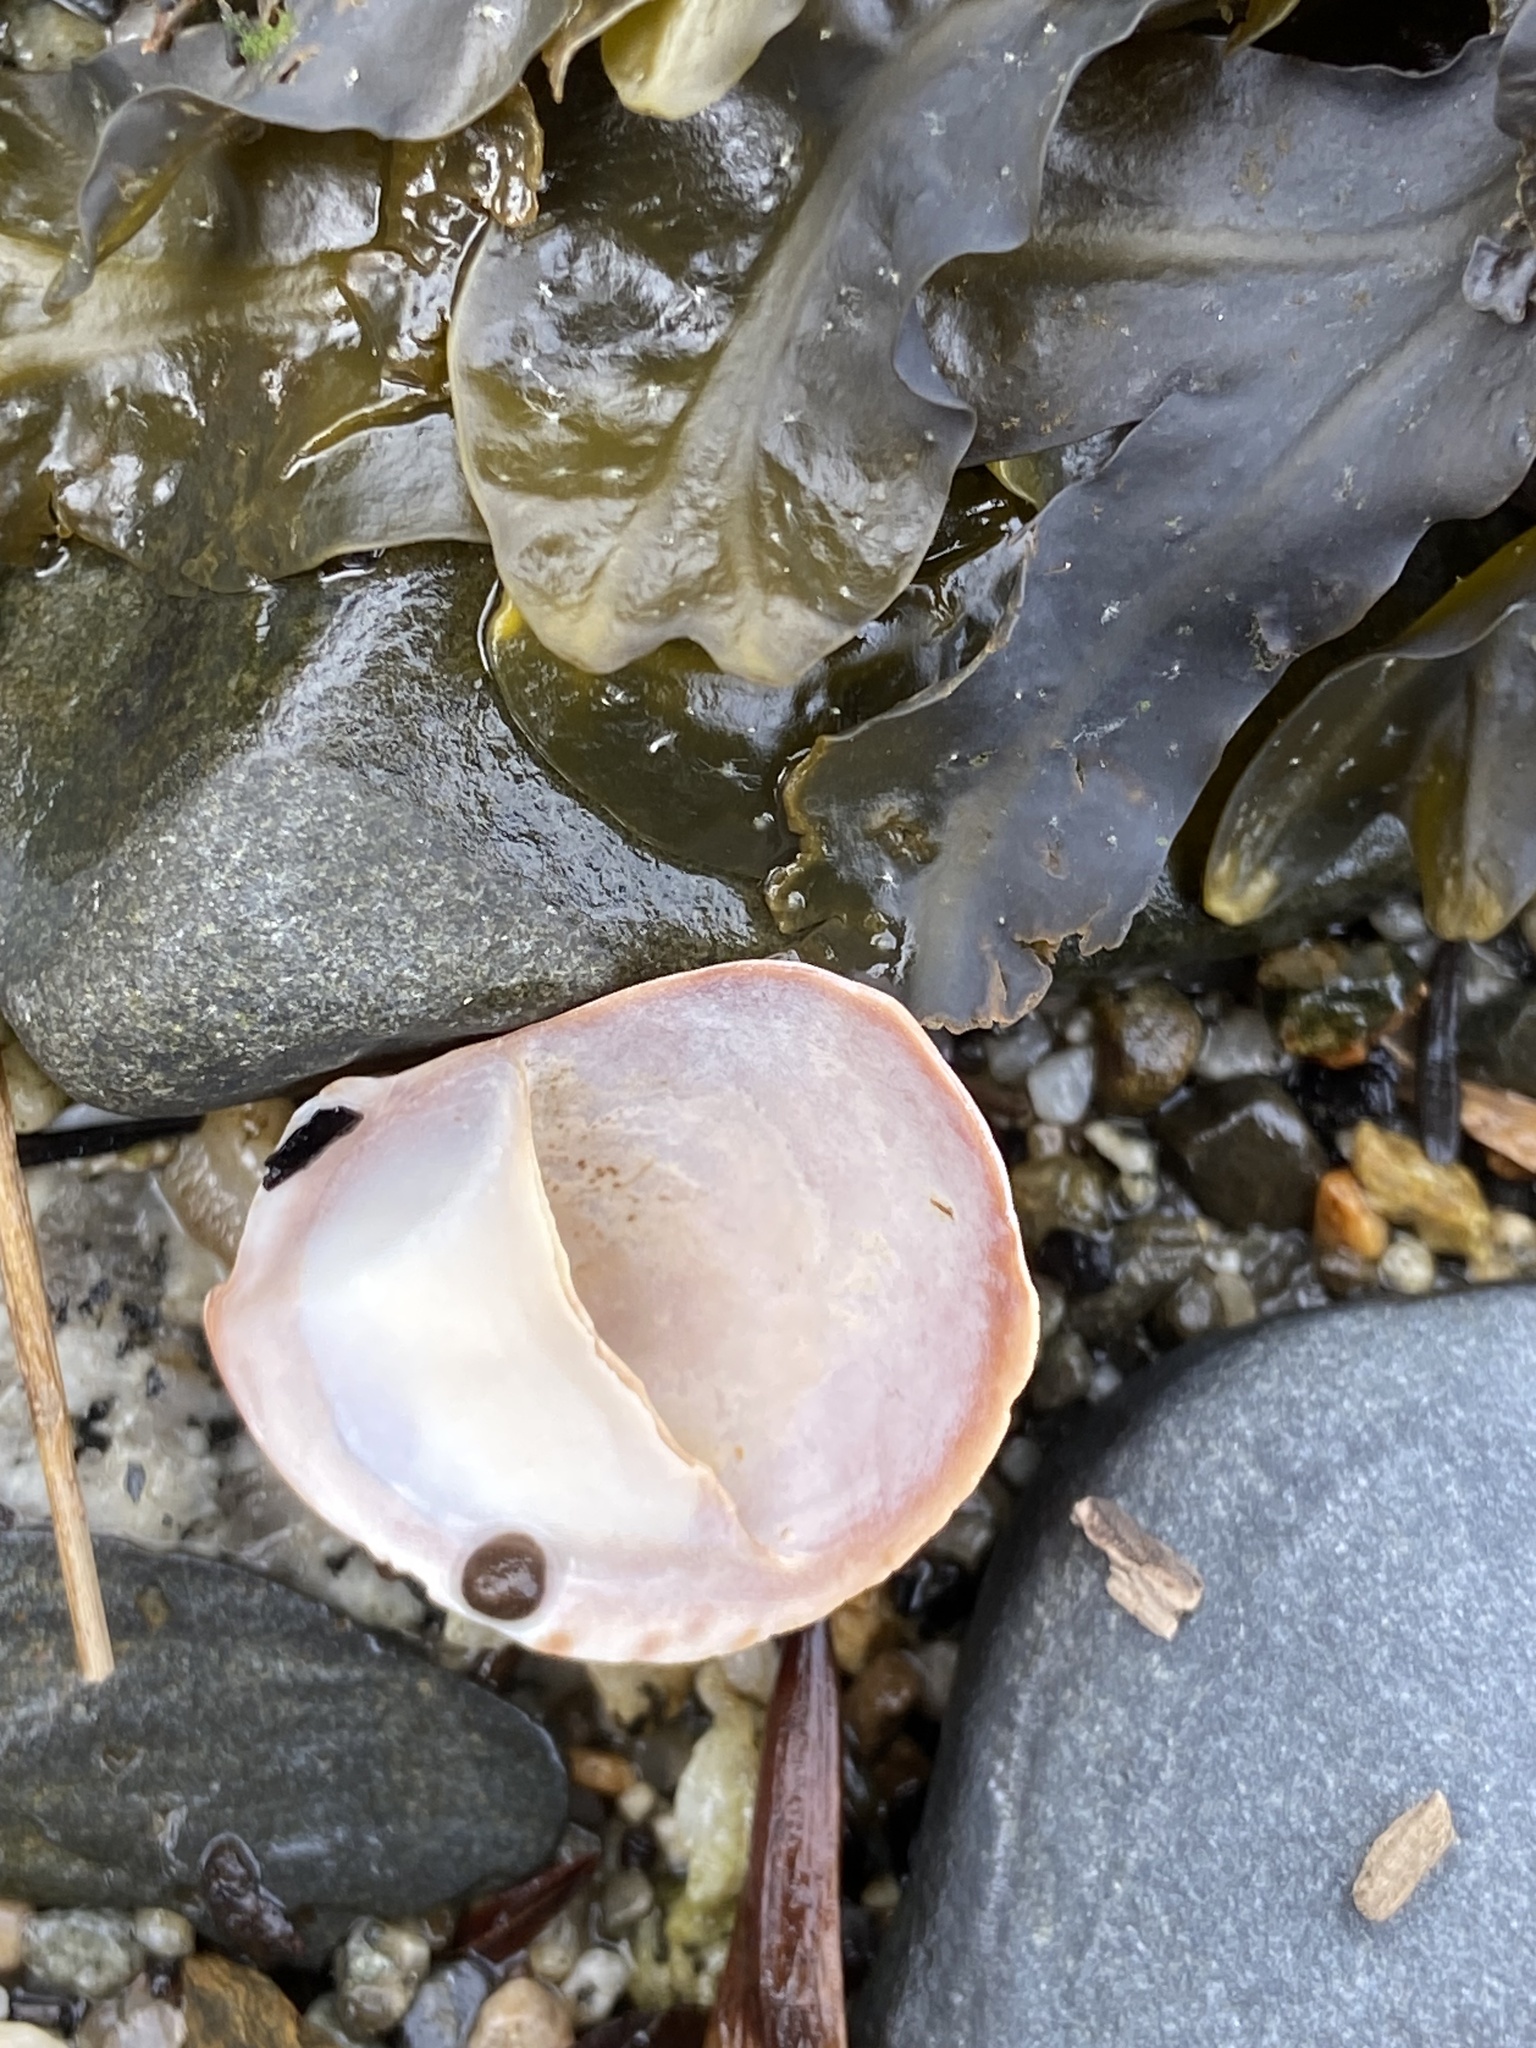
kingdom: Animalia
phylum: Mollusca
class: Gastropoda
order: Littorinimorpha
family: Calyptraeidae
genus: Crepidula
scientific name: Crepidula fornicata
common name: Slipper limpet
